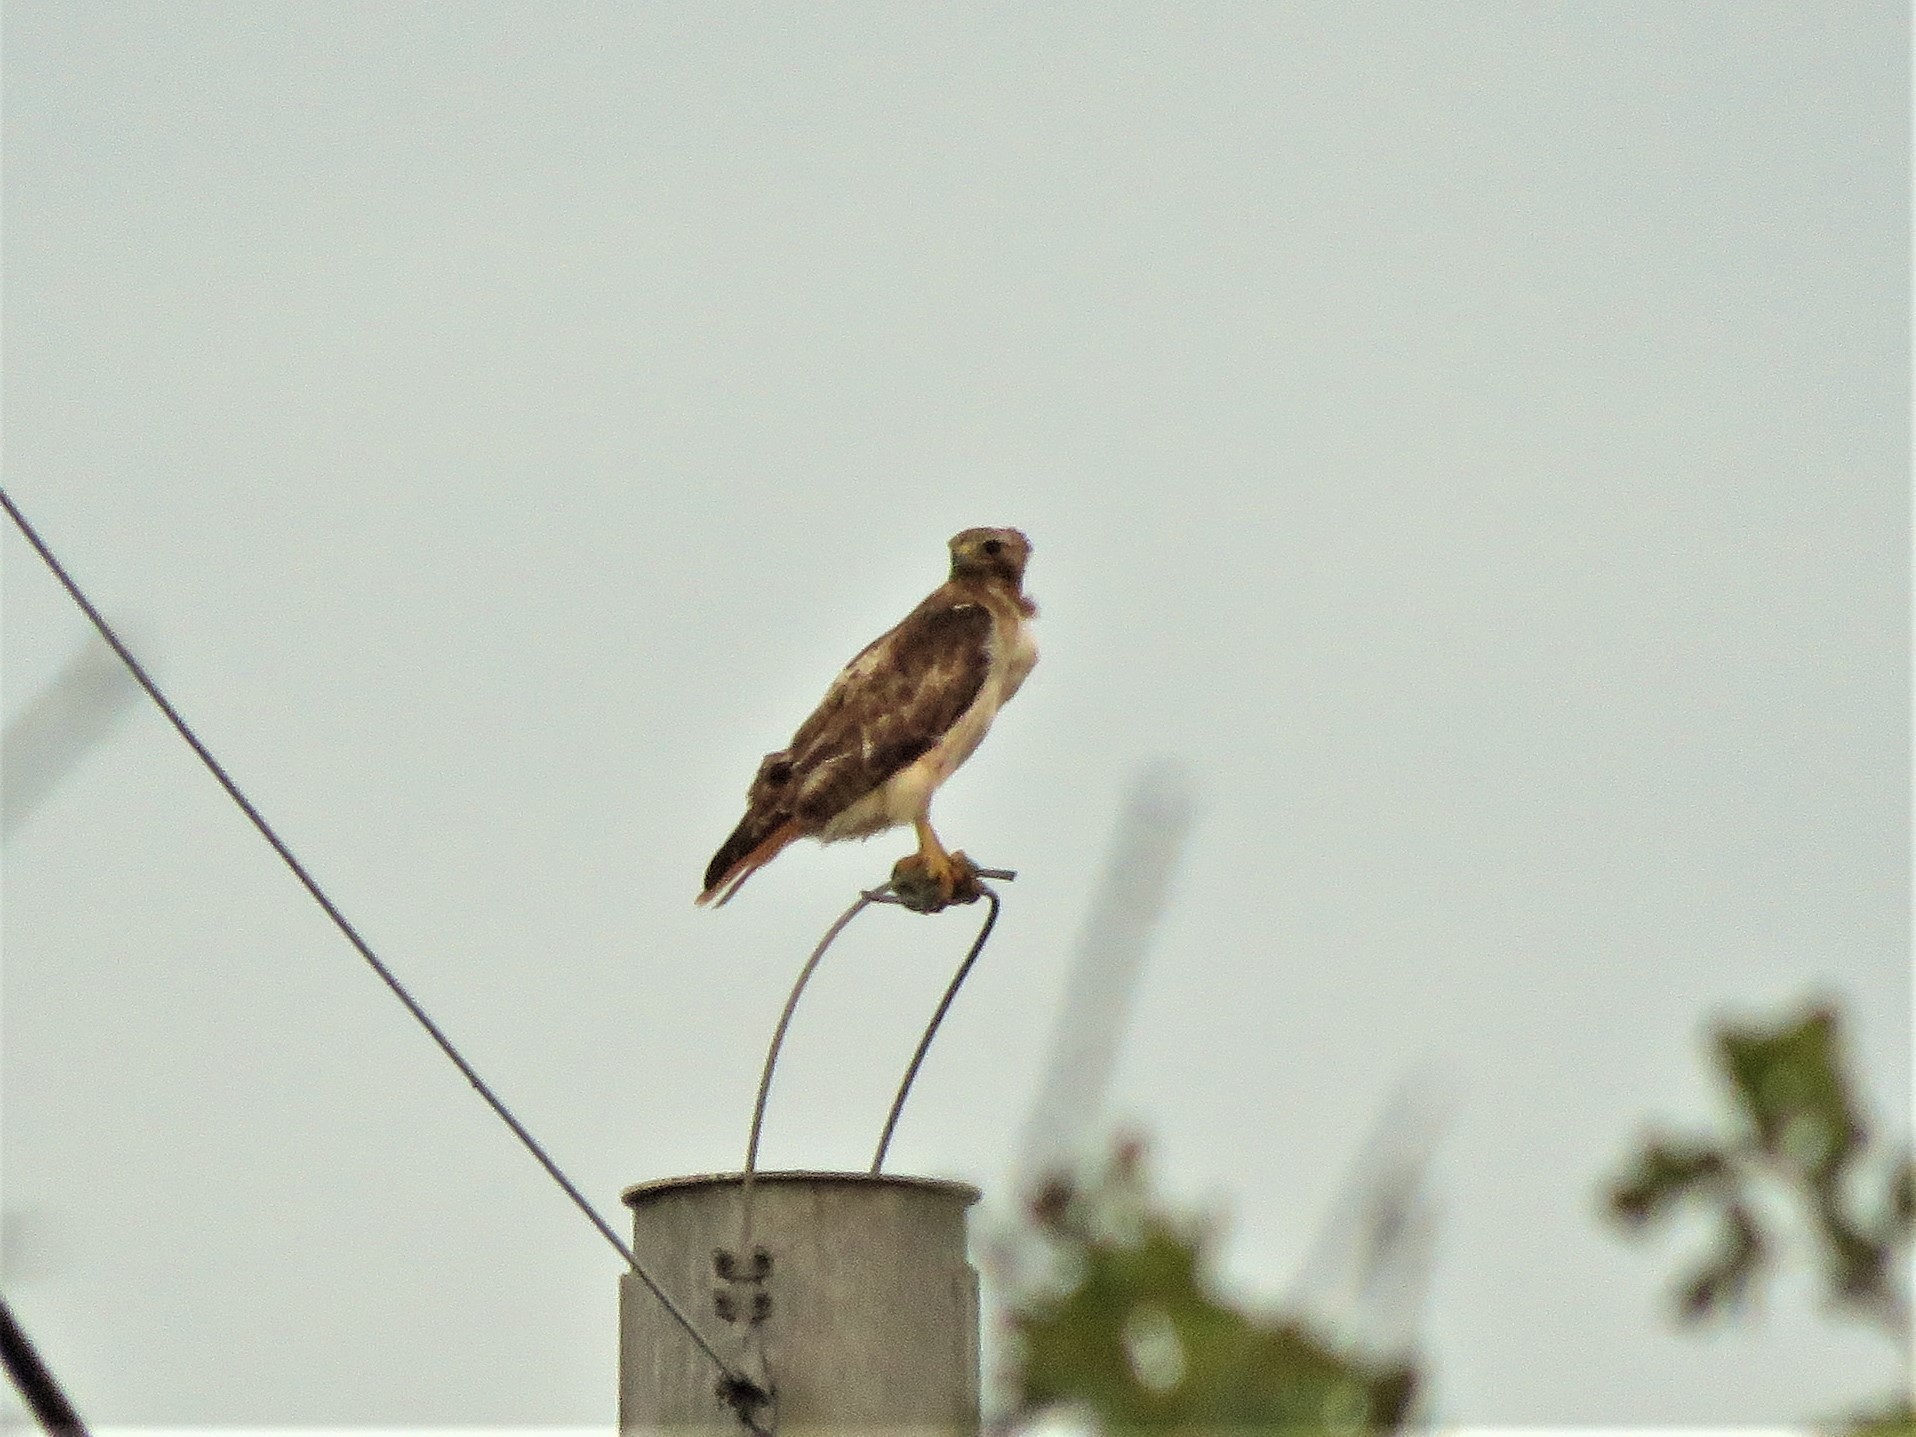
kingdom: Animalia
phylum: Chordata
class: Aves
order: Accipitriformes
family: Accipitridae
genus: Buteo
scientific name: Buteo jamaicensis
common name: Red-tailed hawk
